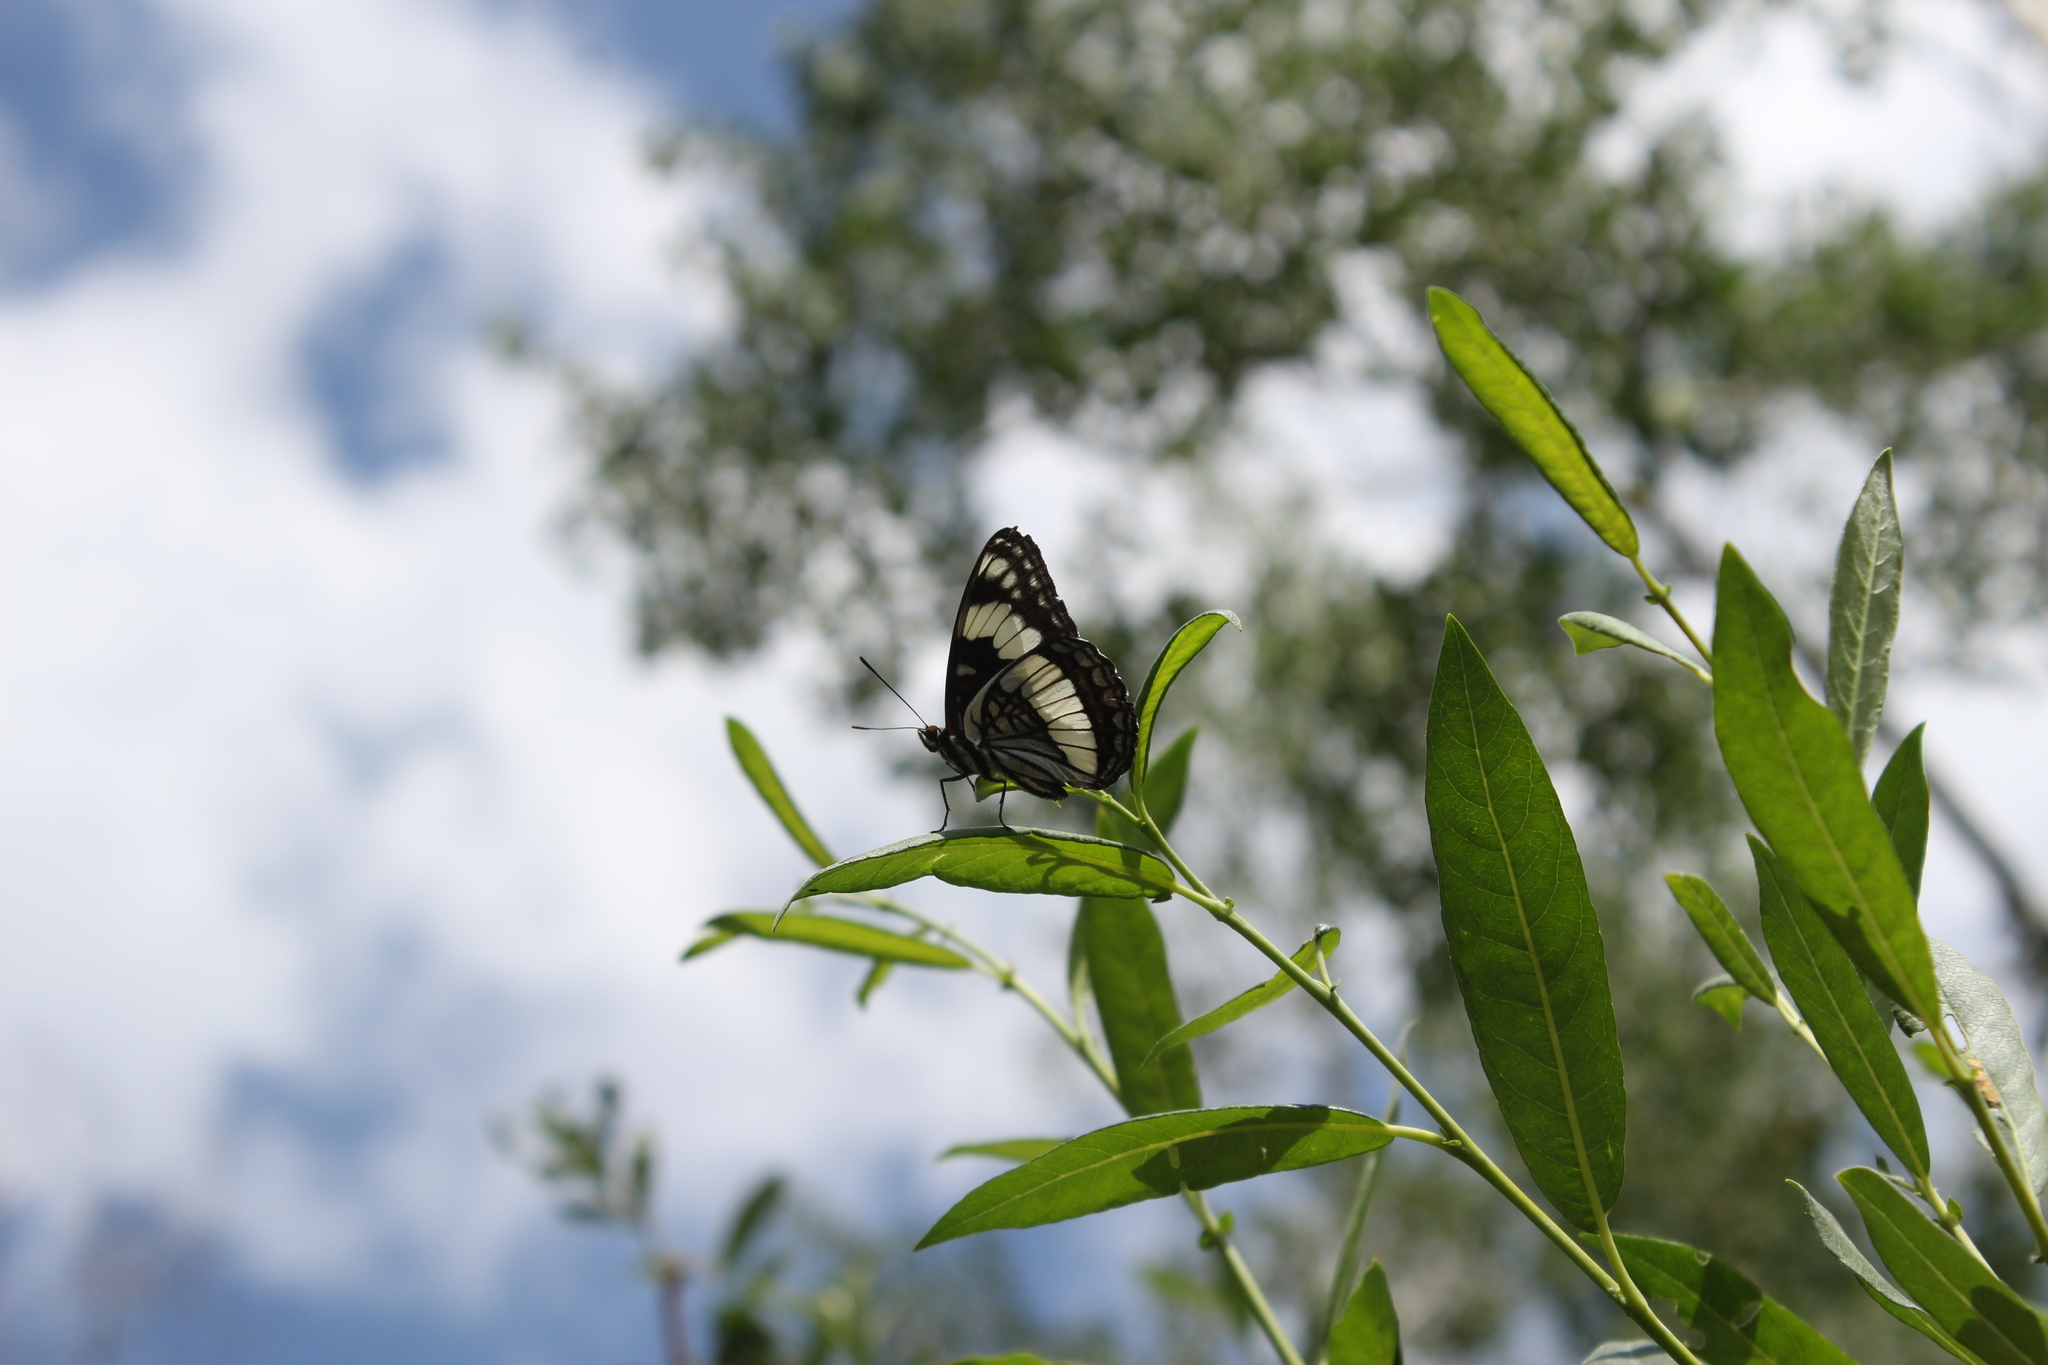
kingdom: Animalia
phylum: Arthropoda
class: Insecta
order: Lepidoptera
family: Nymphalidae
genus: Limenitis
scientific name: Limenitis weidemeyerii
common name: Weidemeyer's admiral
